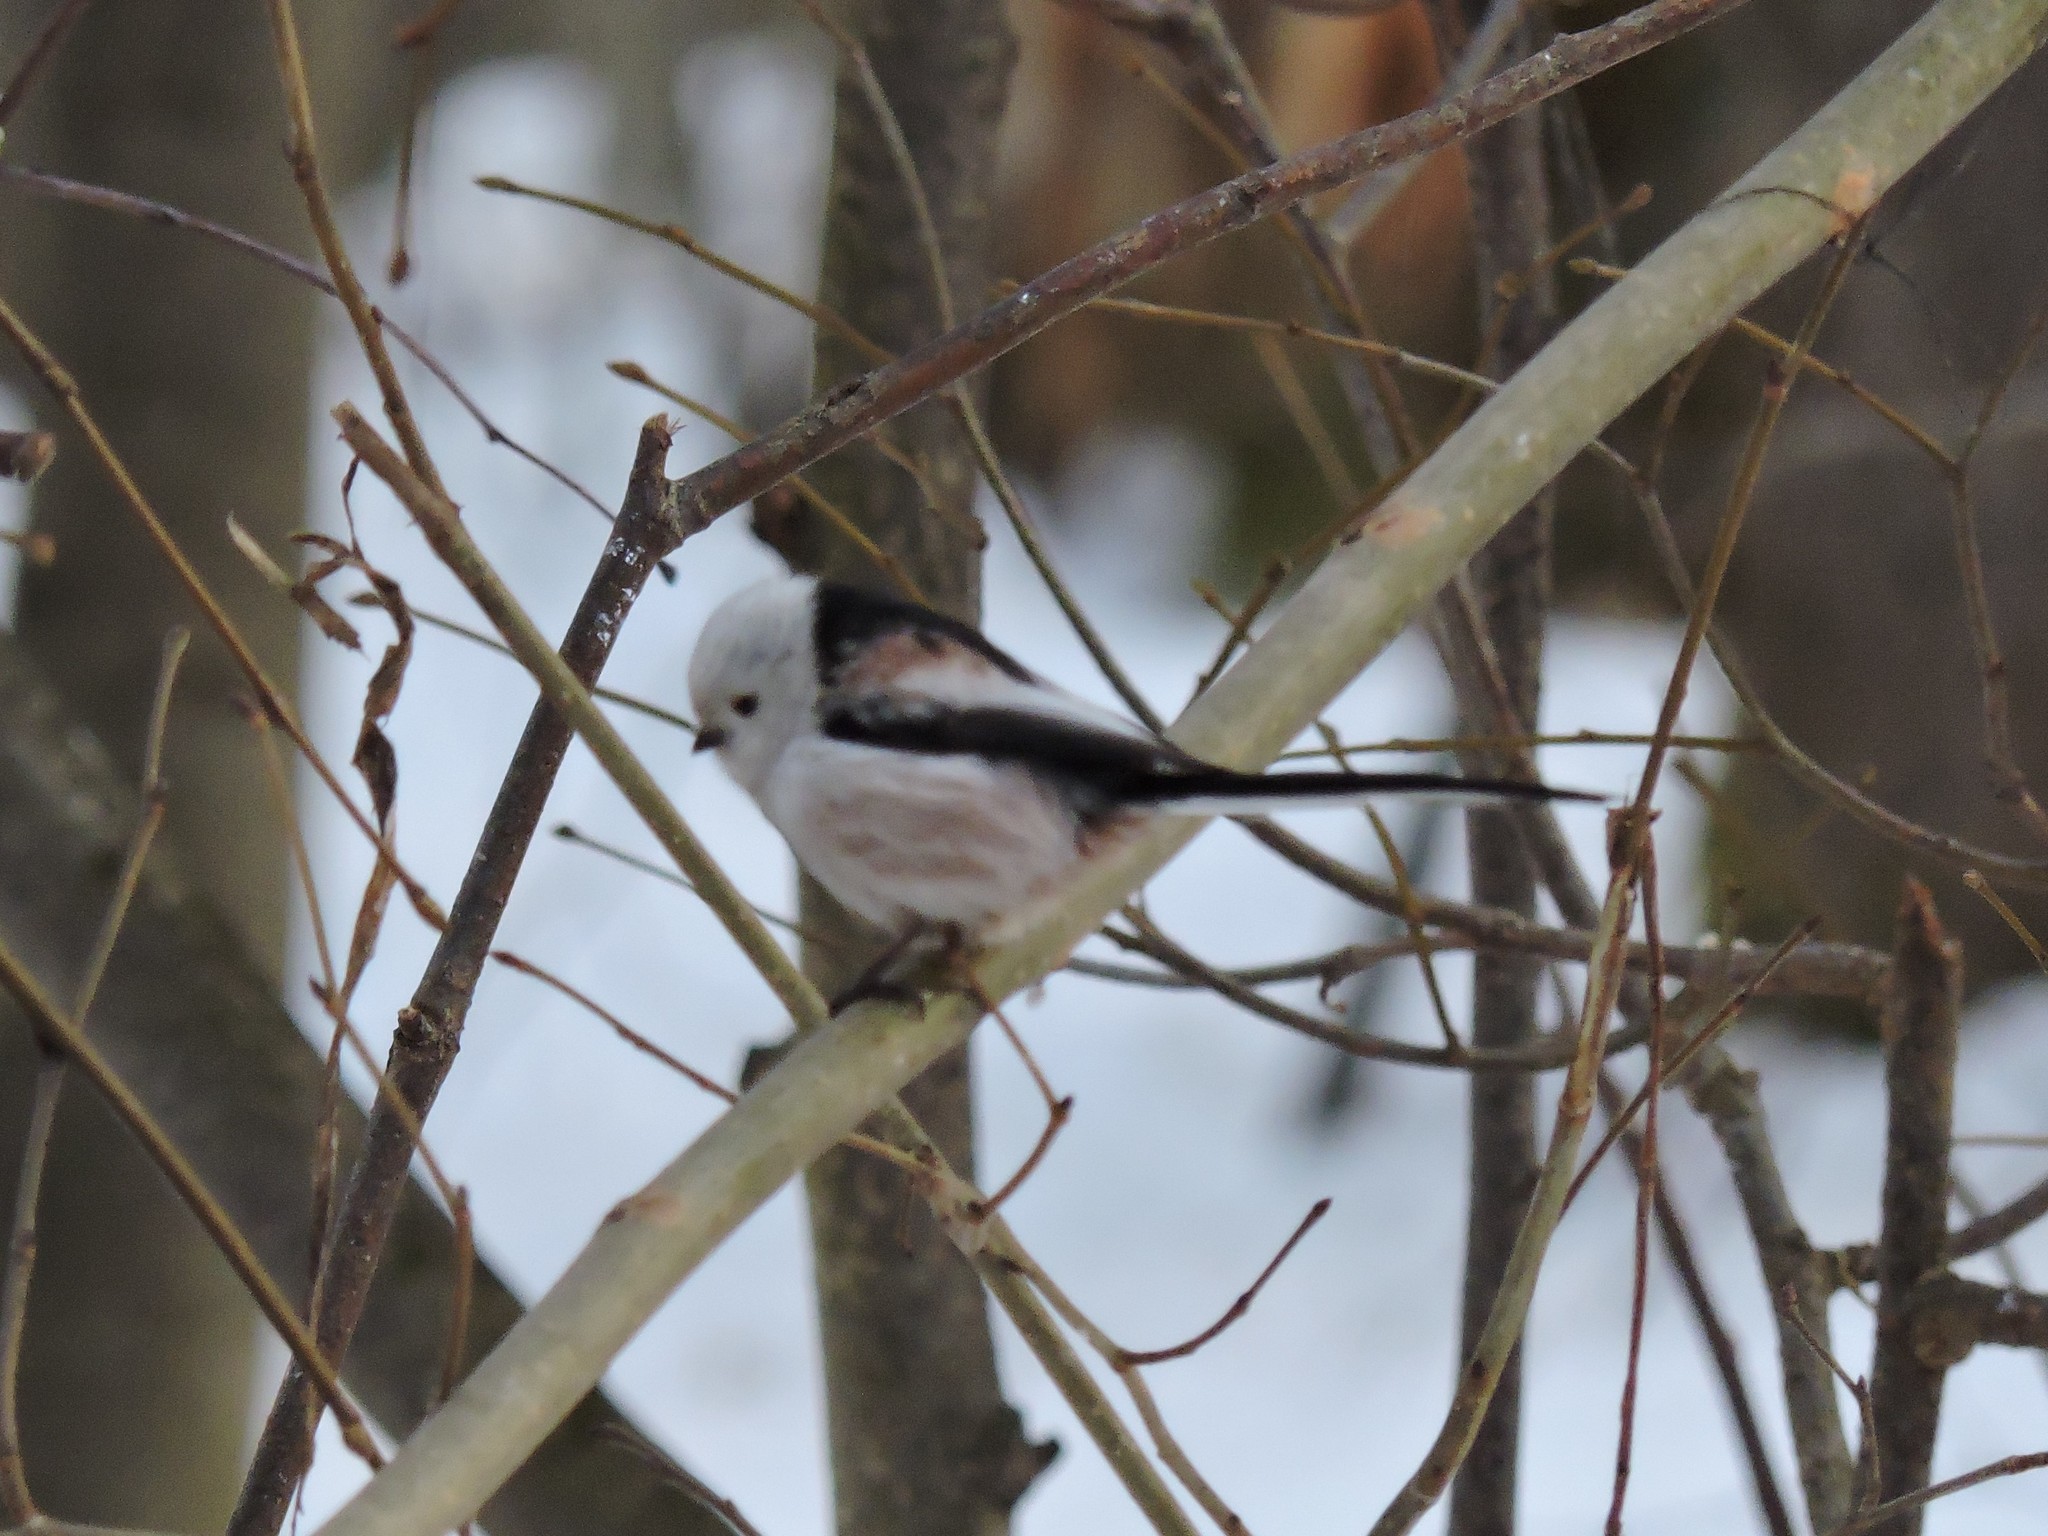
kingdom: Animalia
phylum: Chordata
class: Aves
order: Passeriformes
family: Aegithalidae
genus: Aegithalos
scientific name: Aegithalos caudatus
